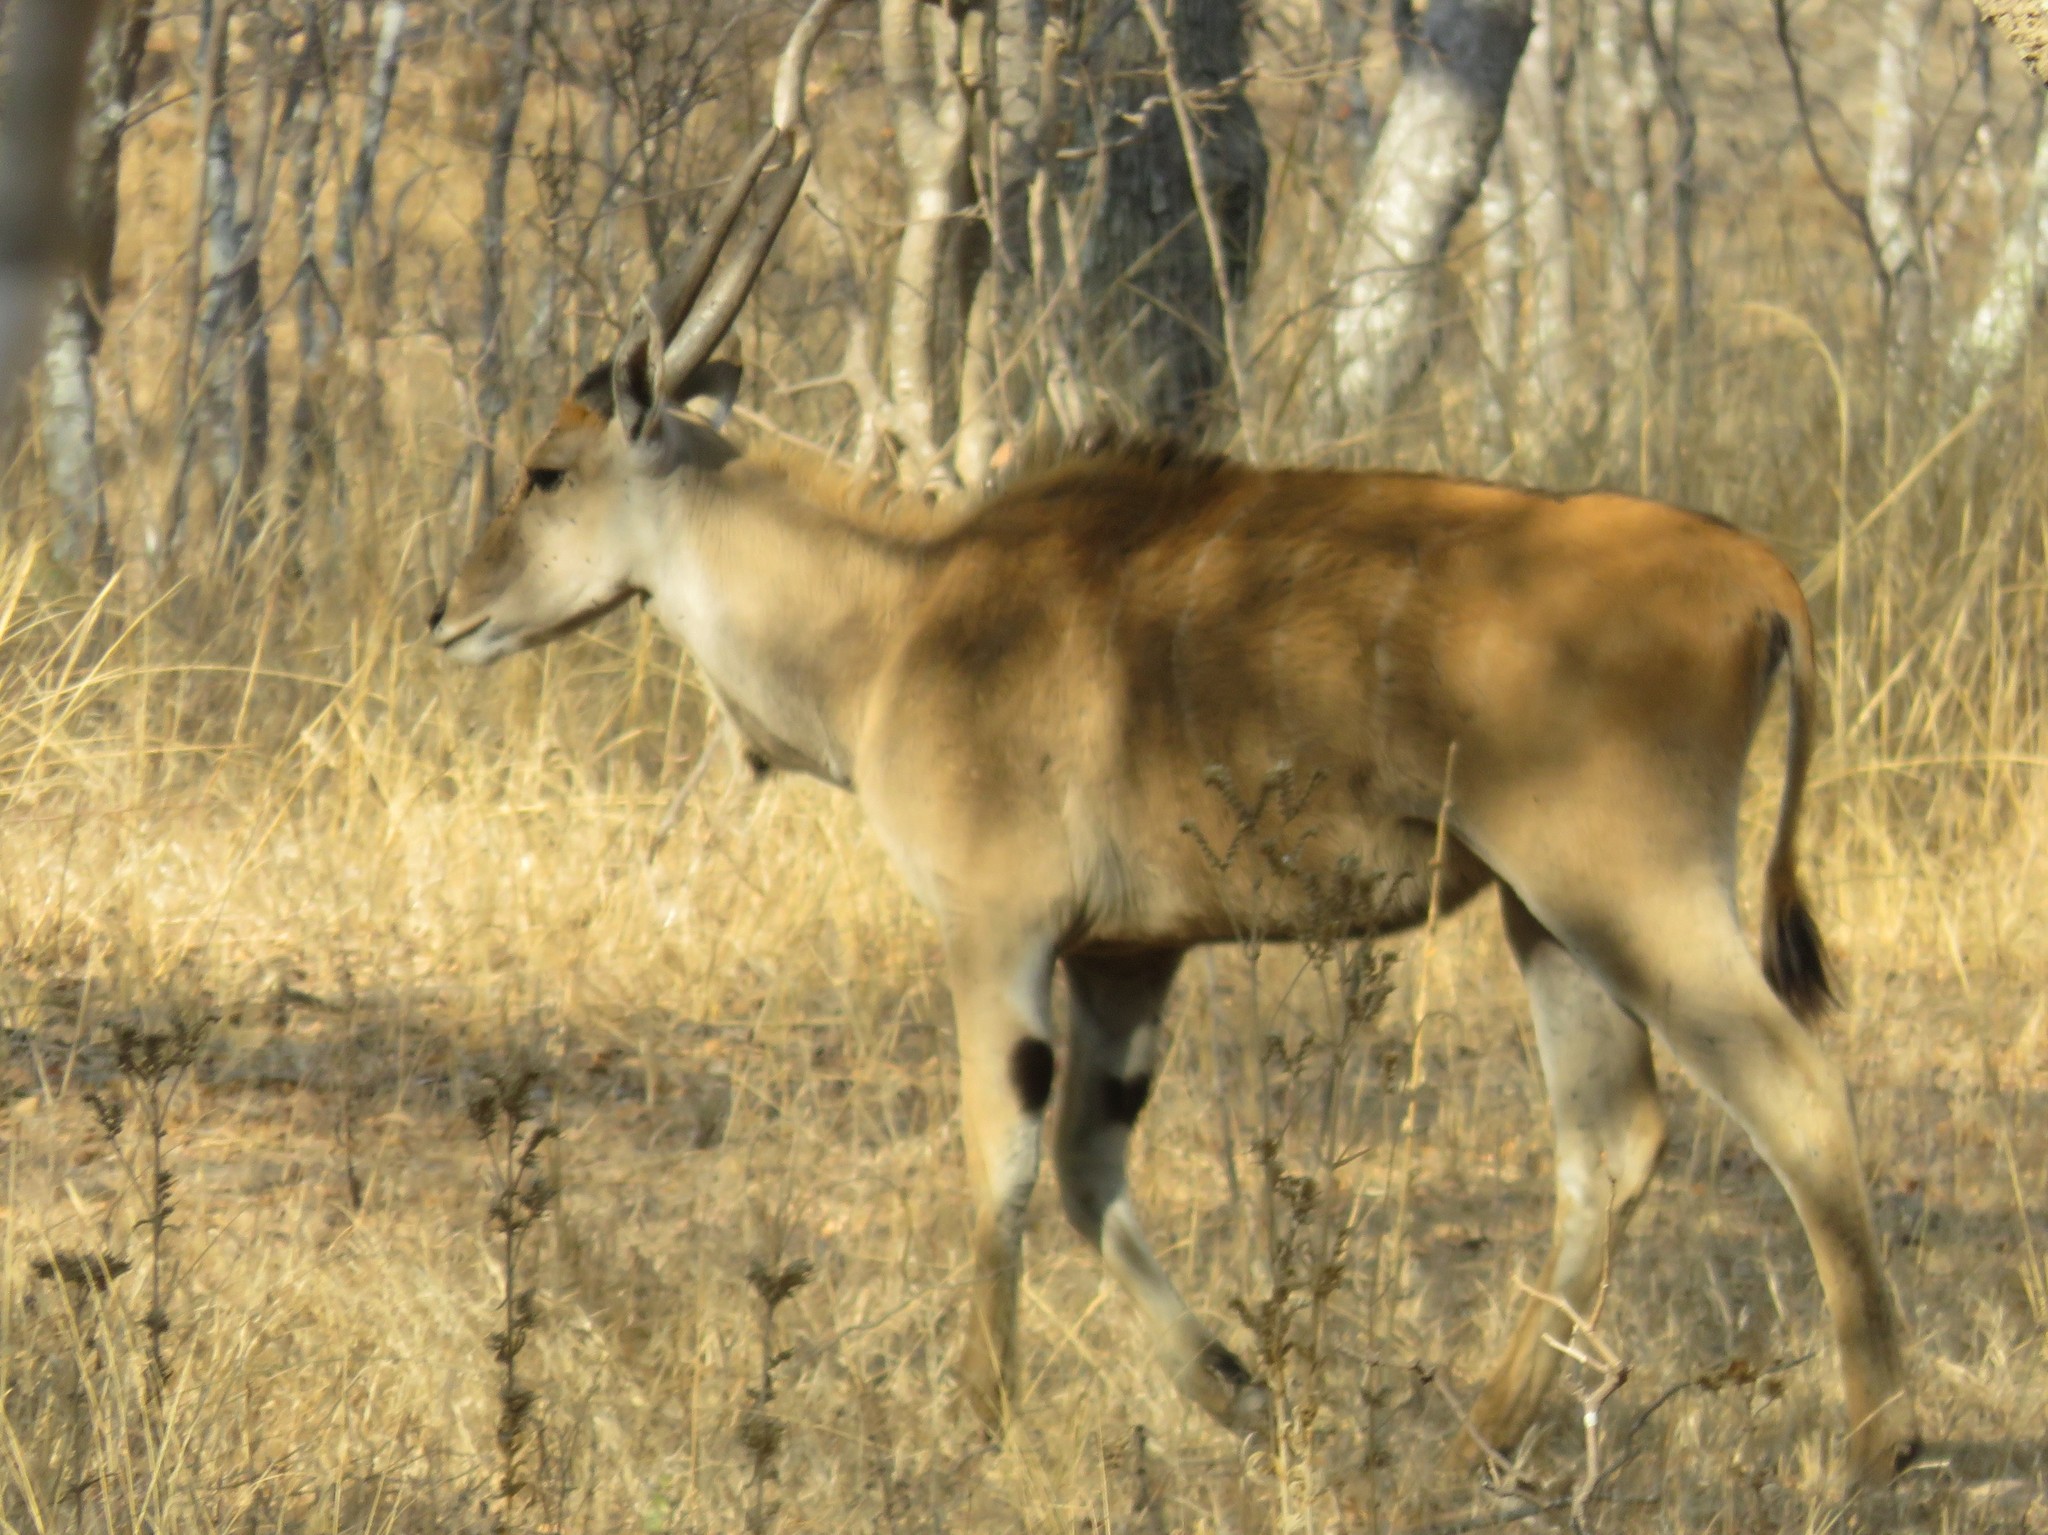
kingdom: Animalia
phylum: Chordata
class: Mammalia
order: Artiodactyla
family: Bovidae
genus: Taurotragus
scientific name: Taurotragus oryx
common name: Common eland
